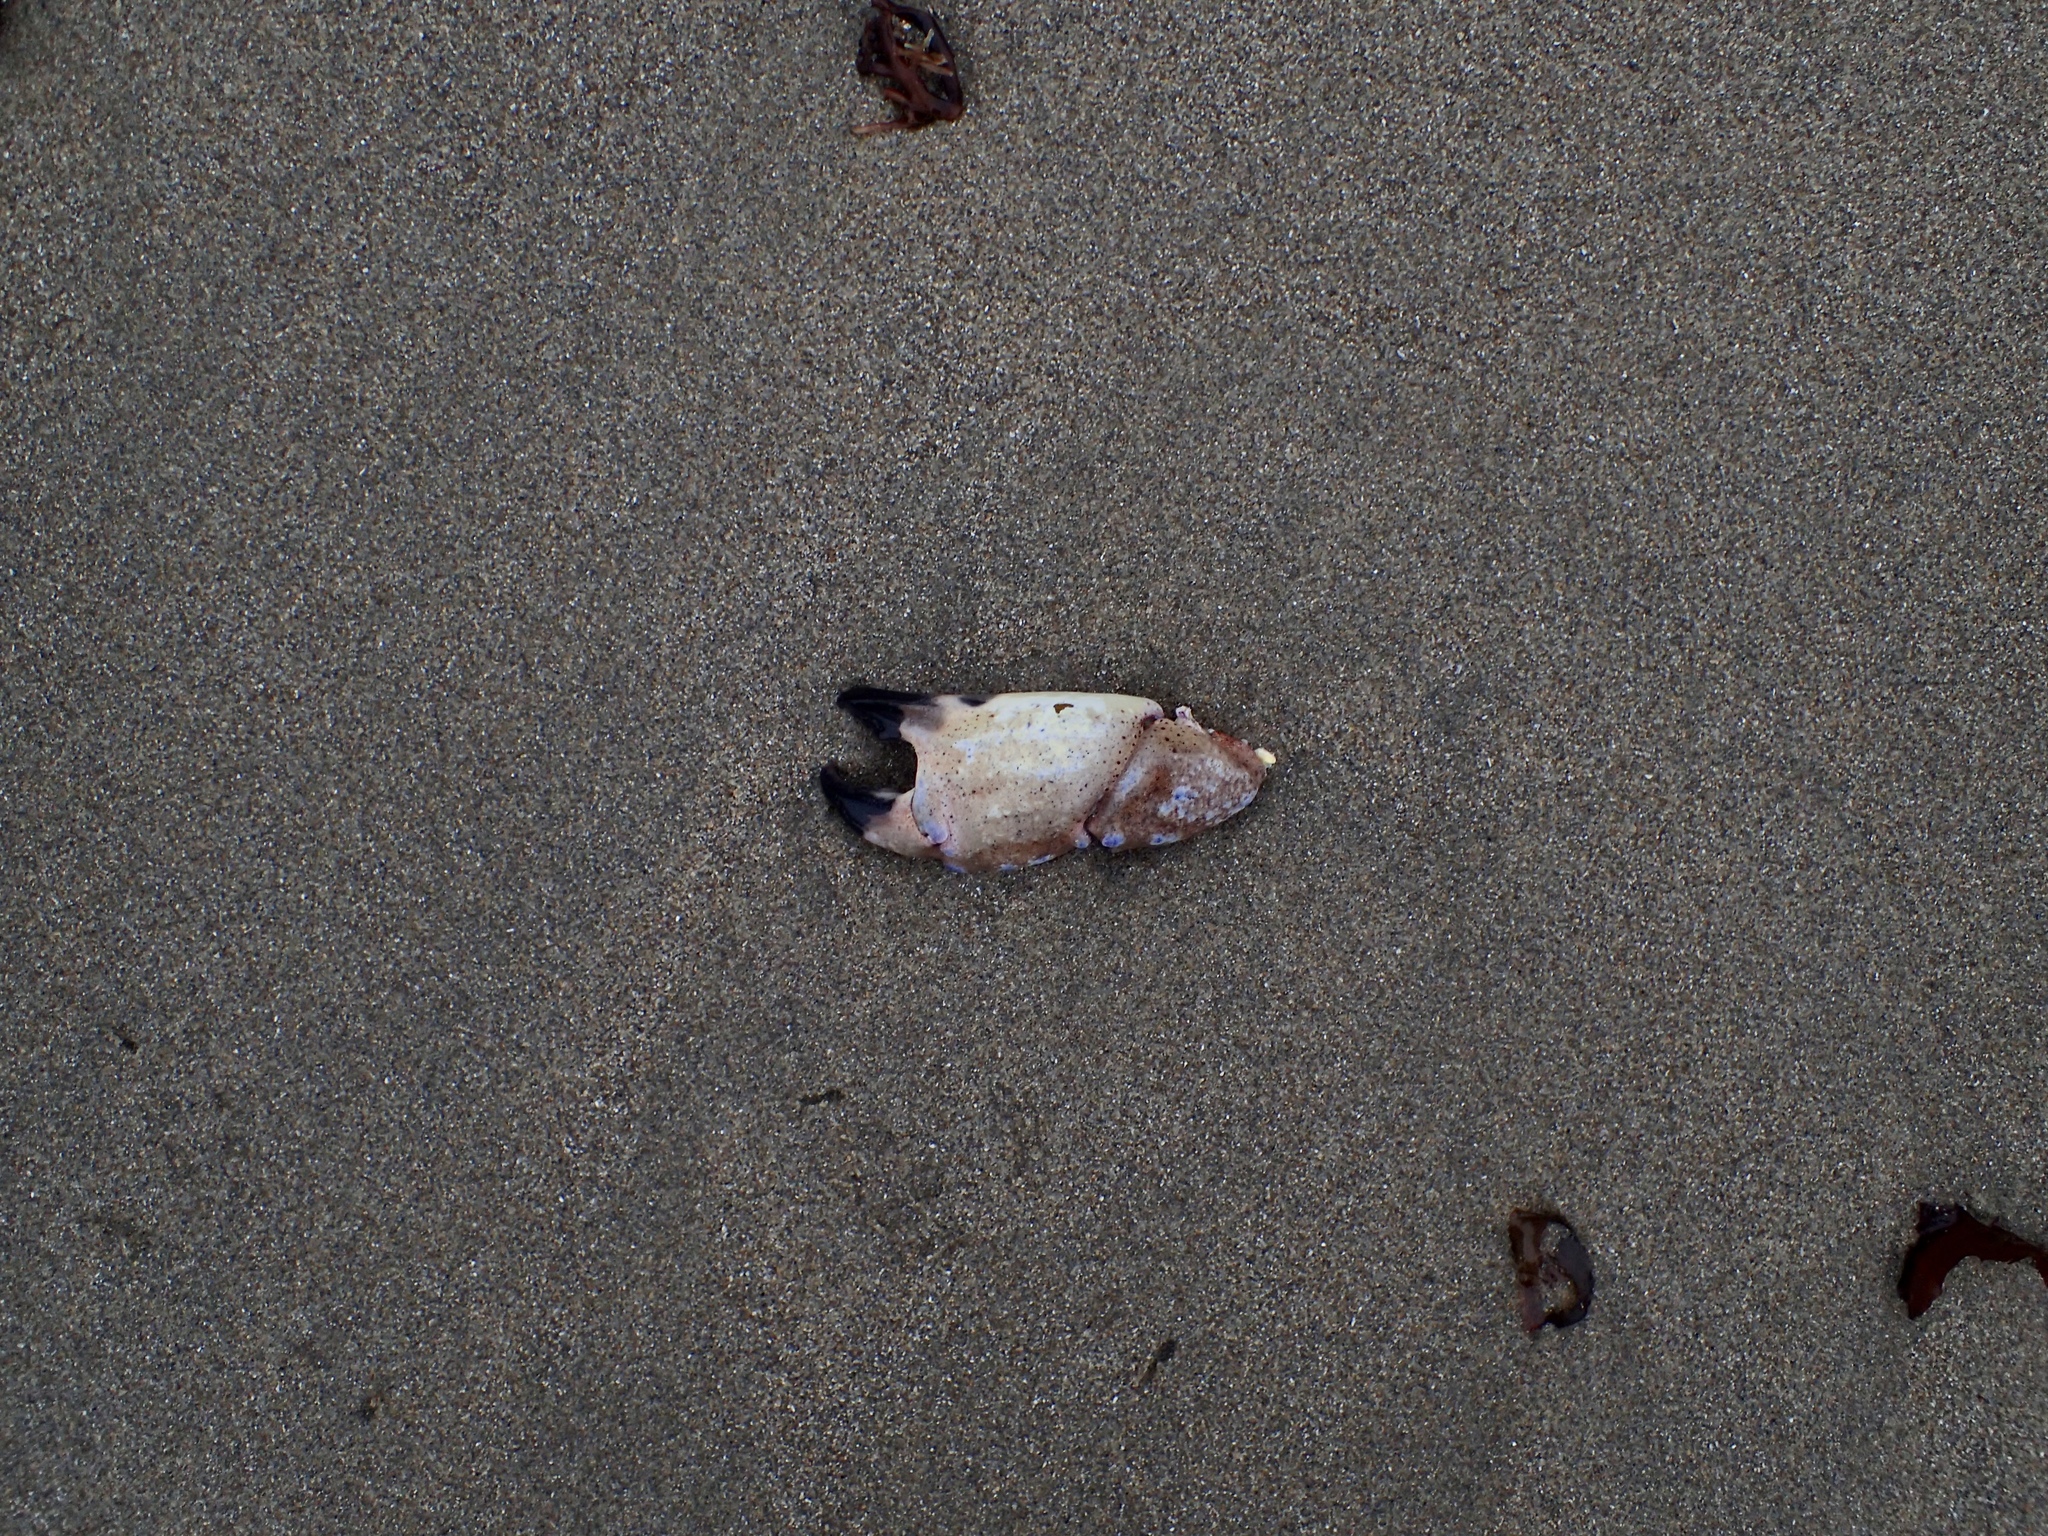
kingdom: Animalia
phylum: Arthropoda
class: Malacostraca
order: Decapoda
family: Cancridae
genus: Romaleon
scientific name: Romaleon antennarium
